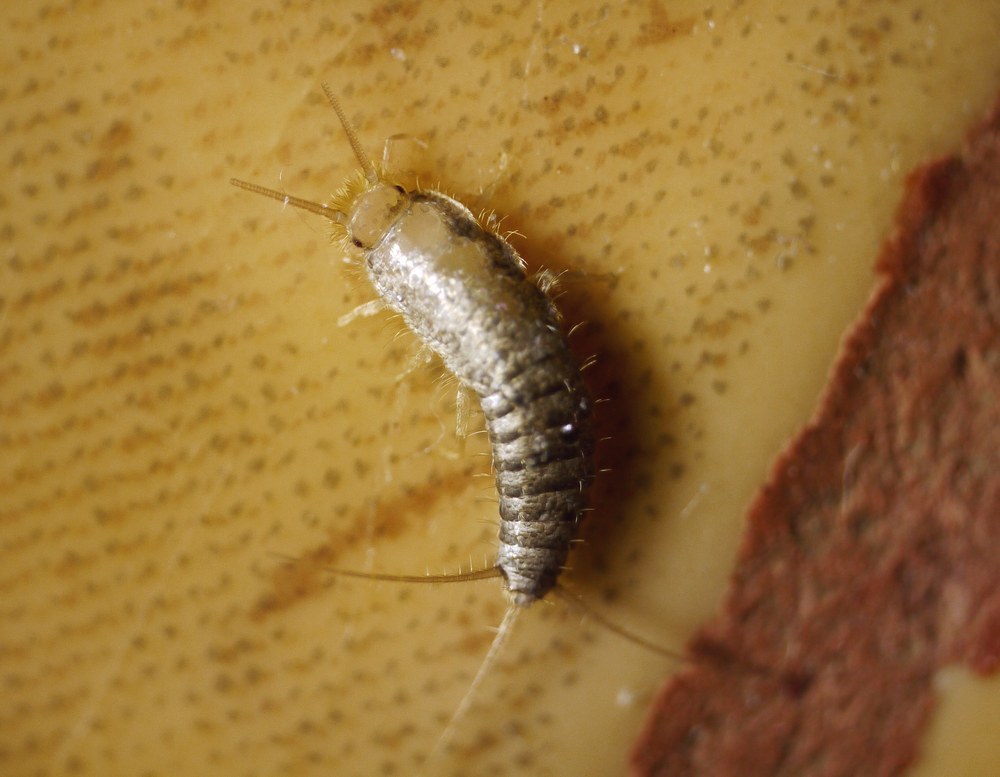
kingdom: Animalia
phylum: Arthropoda
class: Insecta
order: Zygentoma
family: Lepismatidae
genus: Ctenolepisma
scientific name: Ctenolepisma longicaudatum
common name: Silverfish
